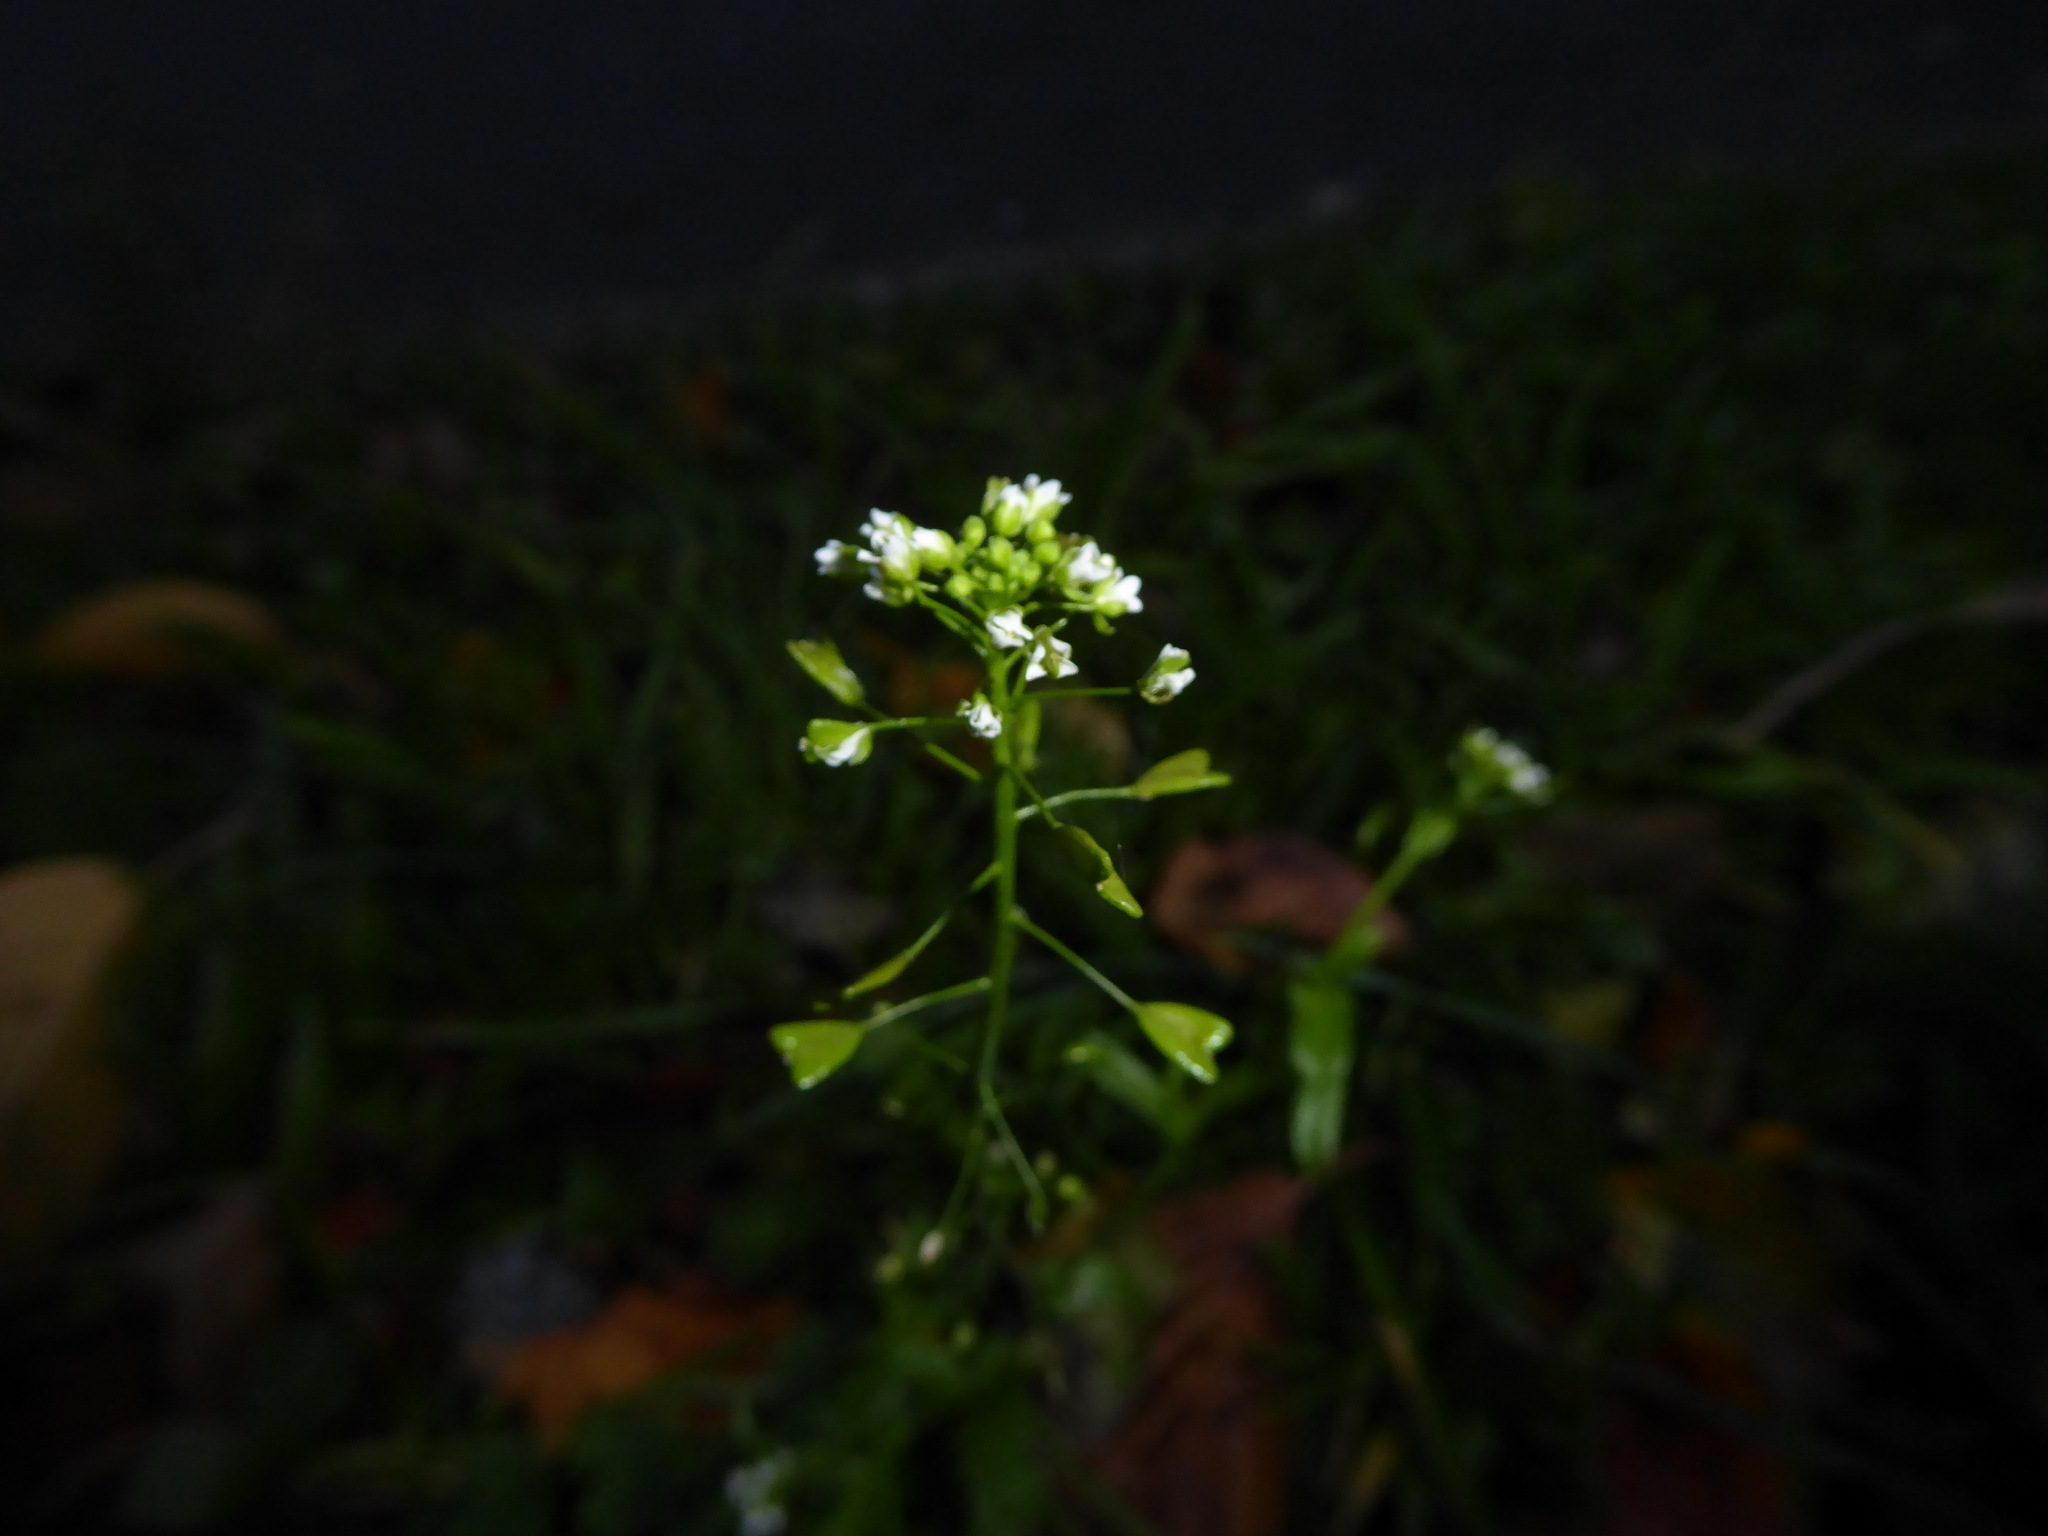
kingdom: Plantae
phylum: Tracheophyta
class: Magnoliopsida
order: Brassicales
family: Brassicaceae
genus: Capsella
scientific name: Capsella bursa-pastoris
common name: Shepherd's purse
